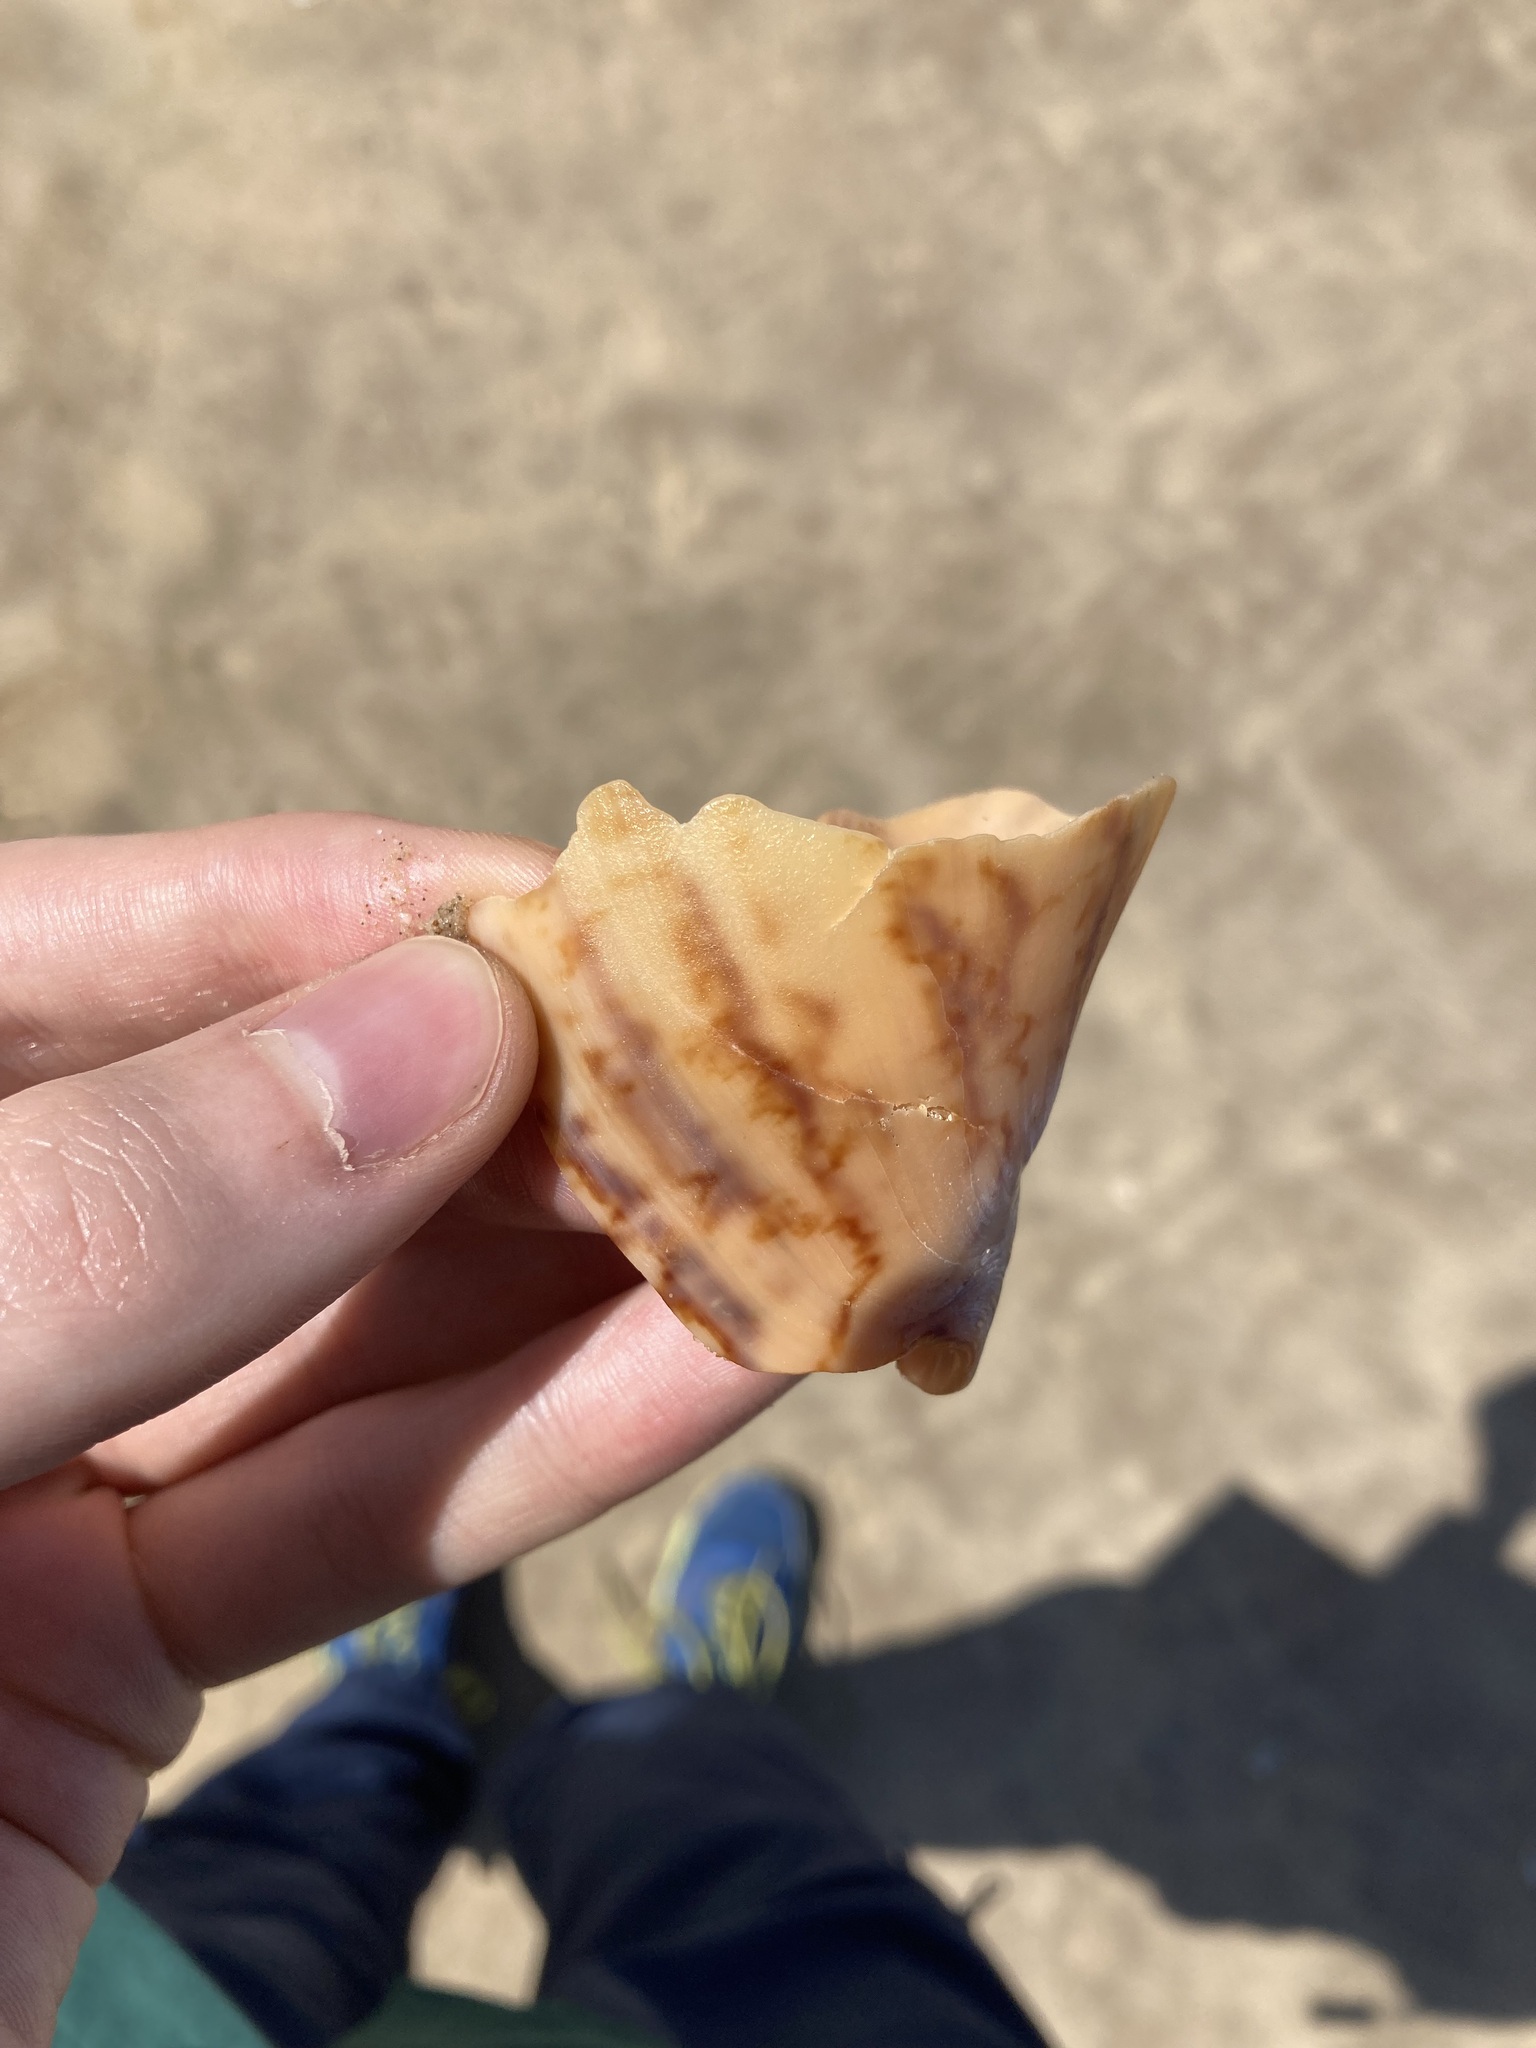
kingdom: Animalia
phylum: Mollusca
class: Gastropoda
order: Neogastropoda
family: Volutidae
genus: Cymbiola
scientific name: Cymbiola magnifica
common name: Magnificent volute
